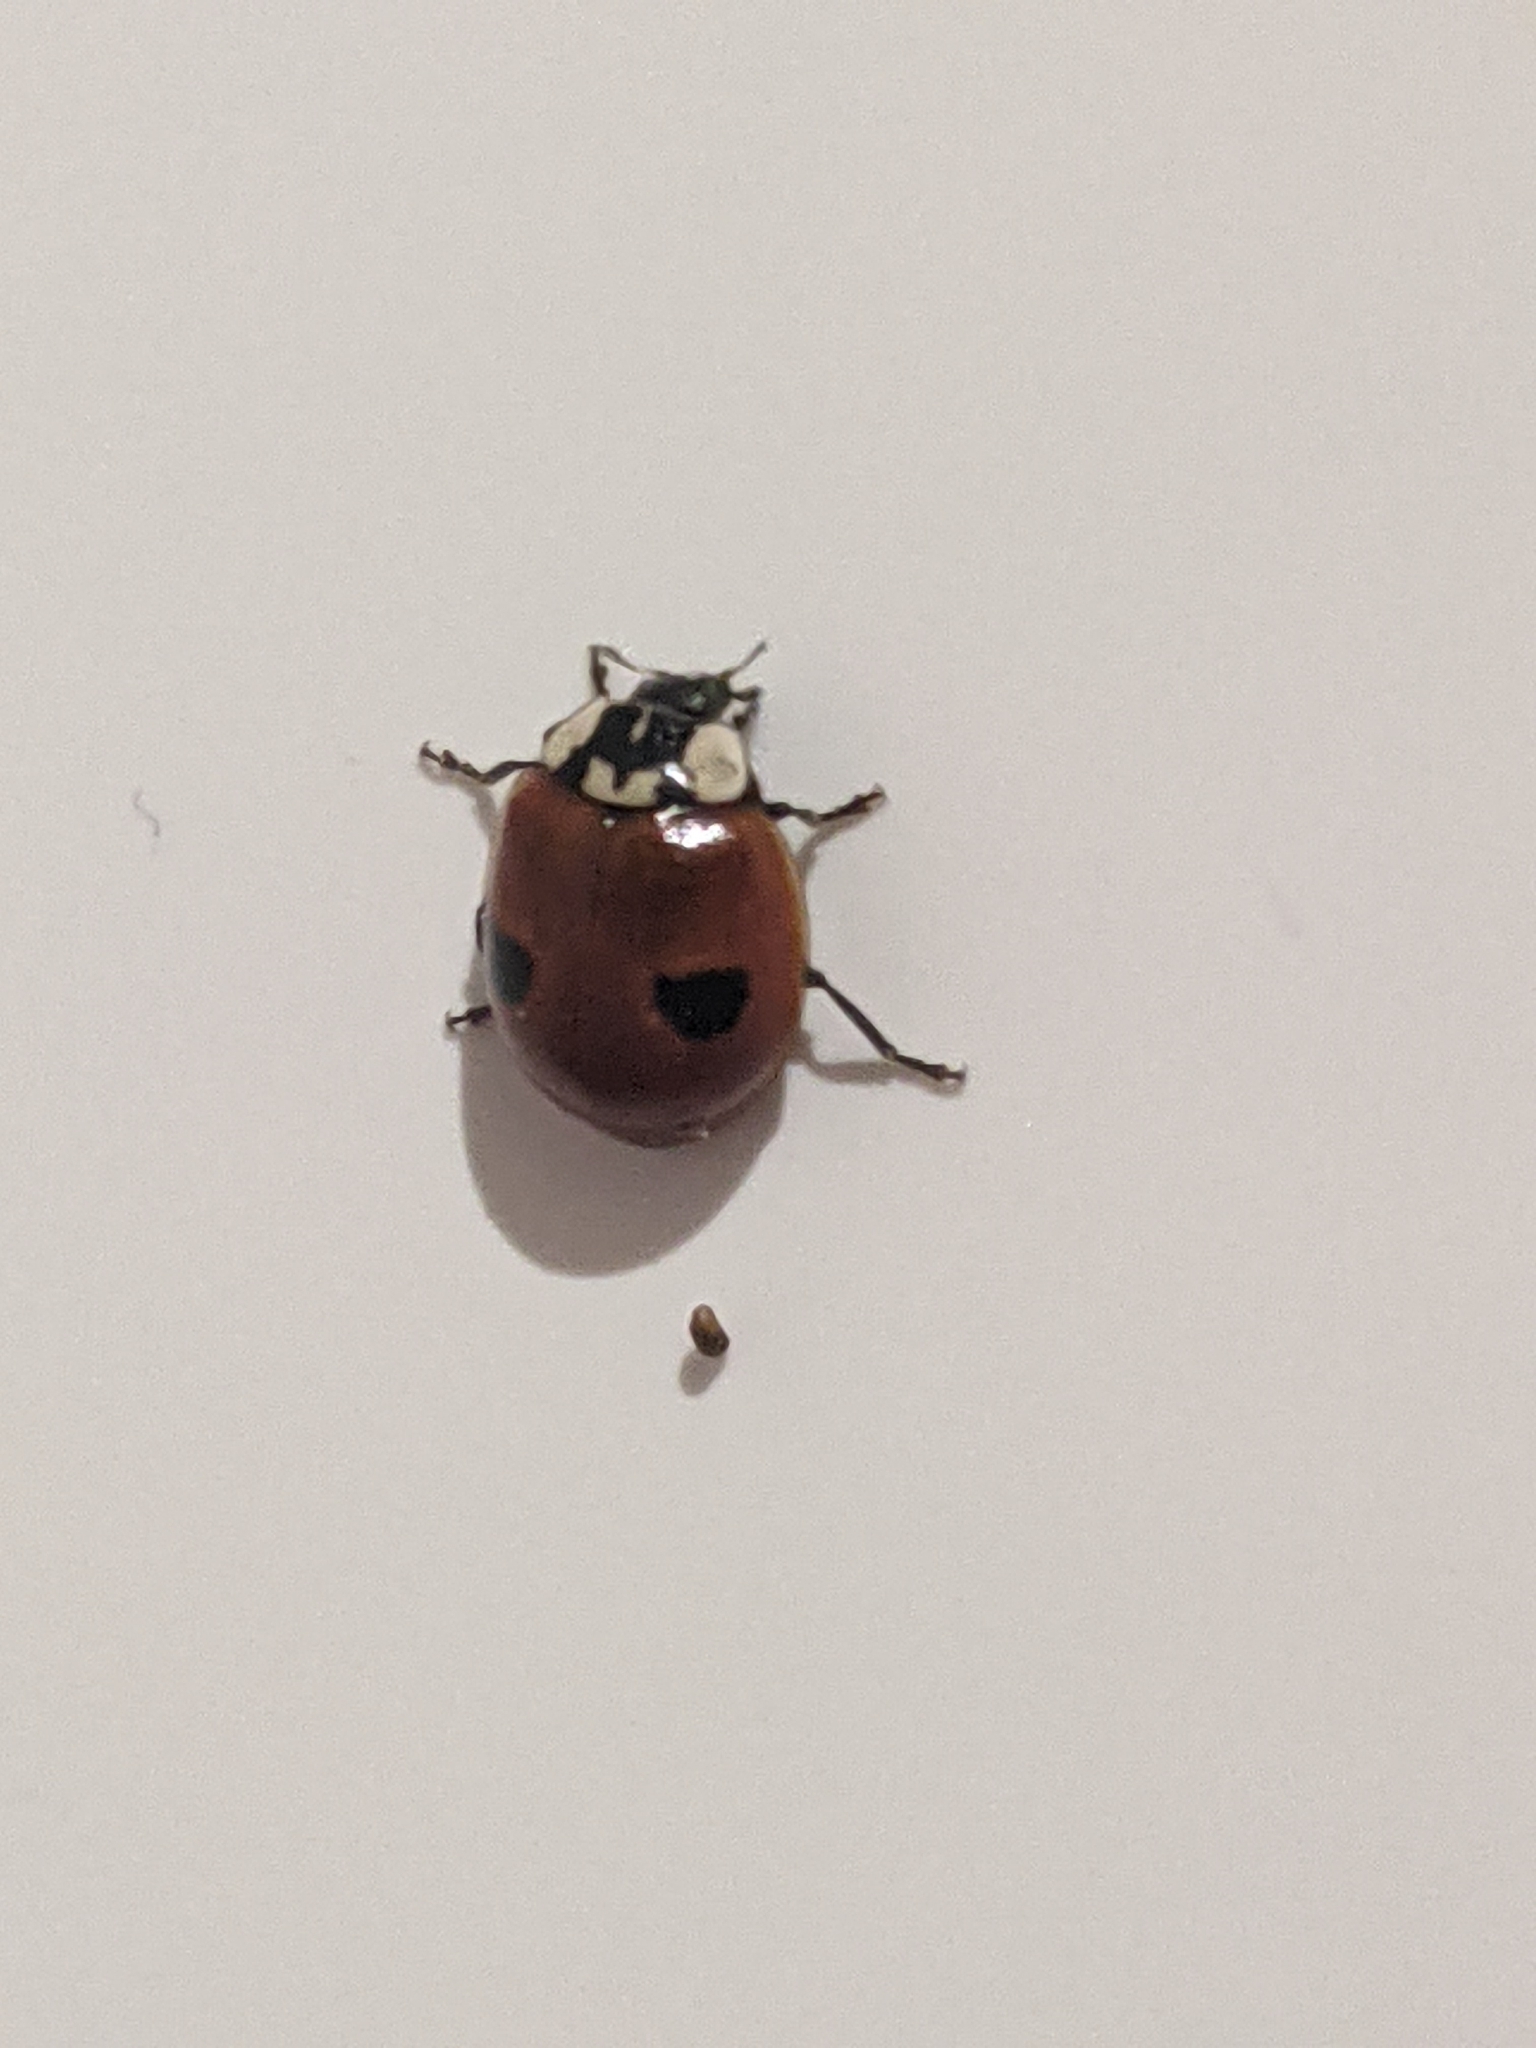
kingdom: Animalia
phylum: Arthropoda
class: Insecta
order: Coleoptera
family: Coccinellidae
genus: Adalia
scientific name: Adalia bipunctata
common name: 2-spot ladybird
